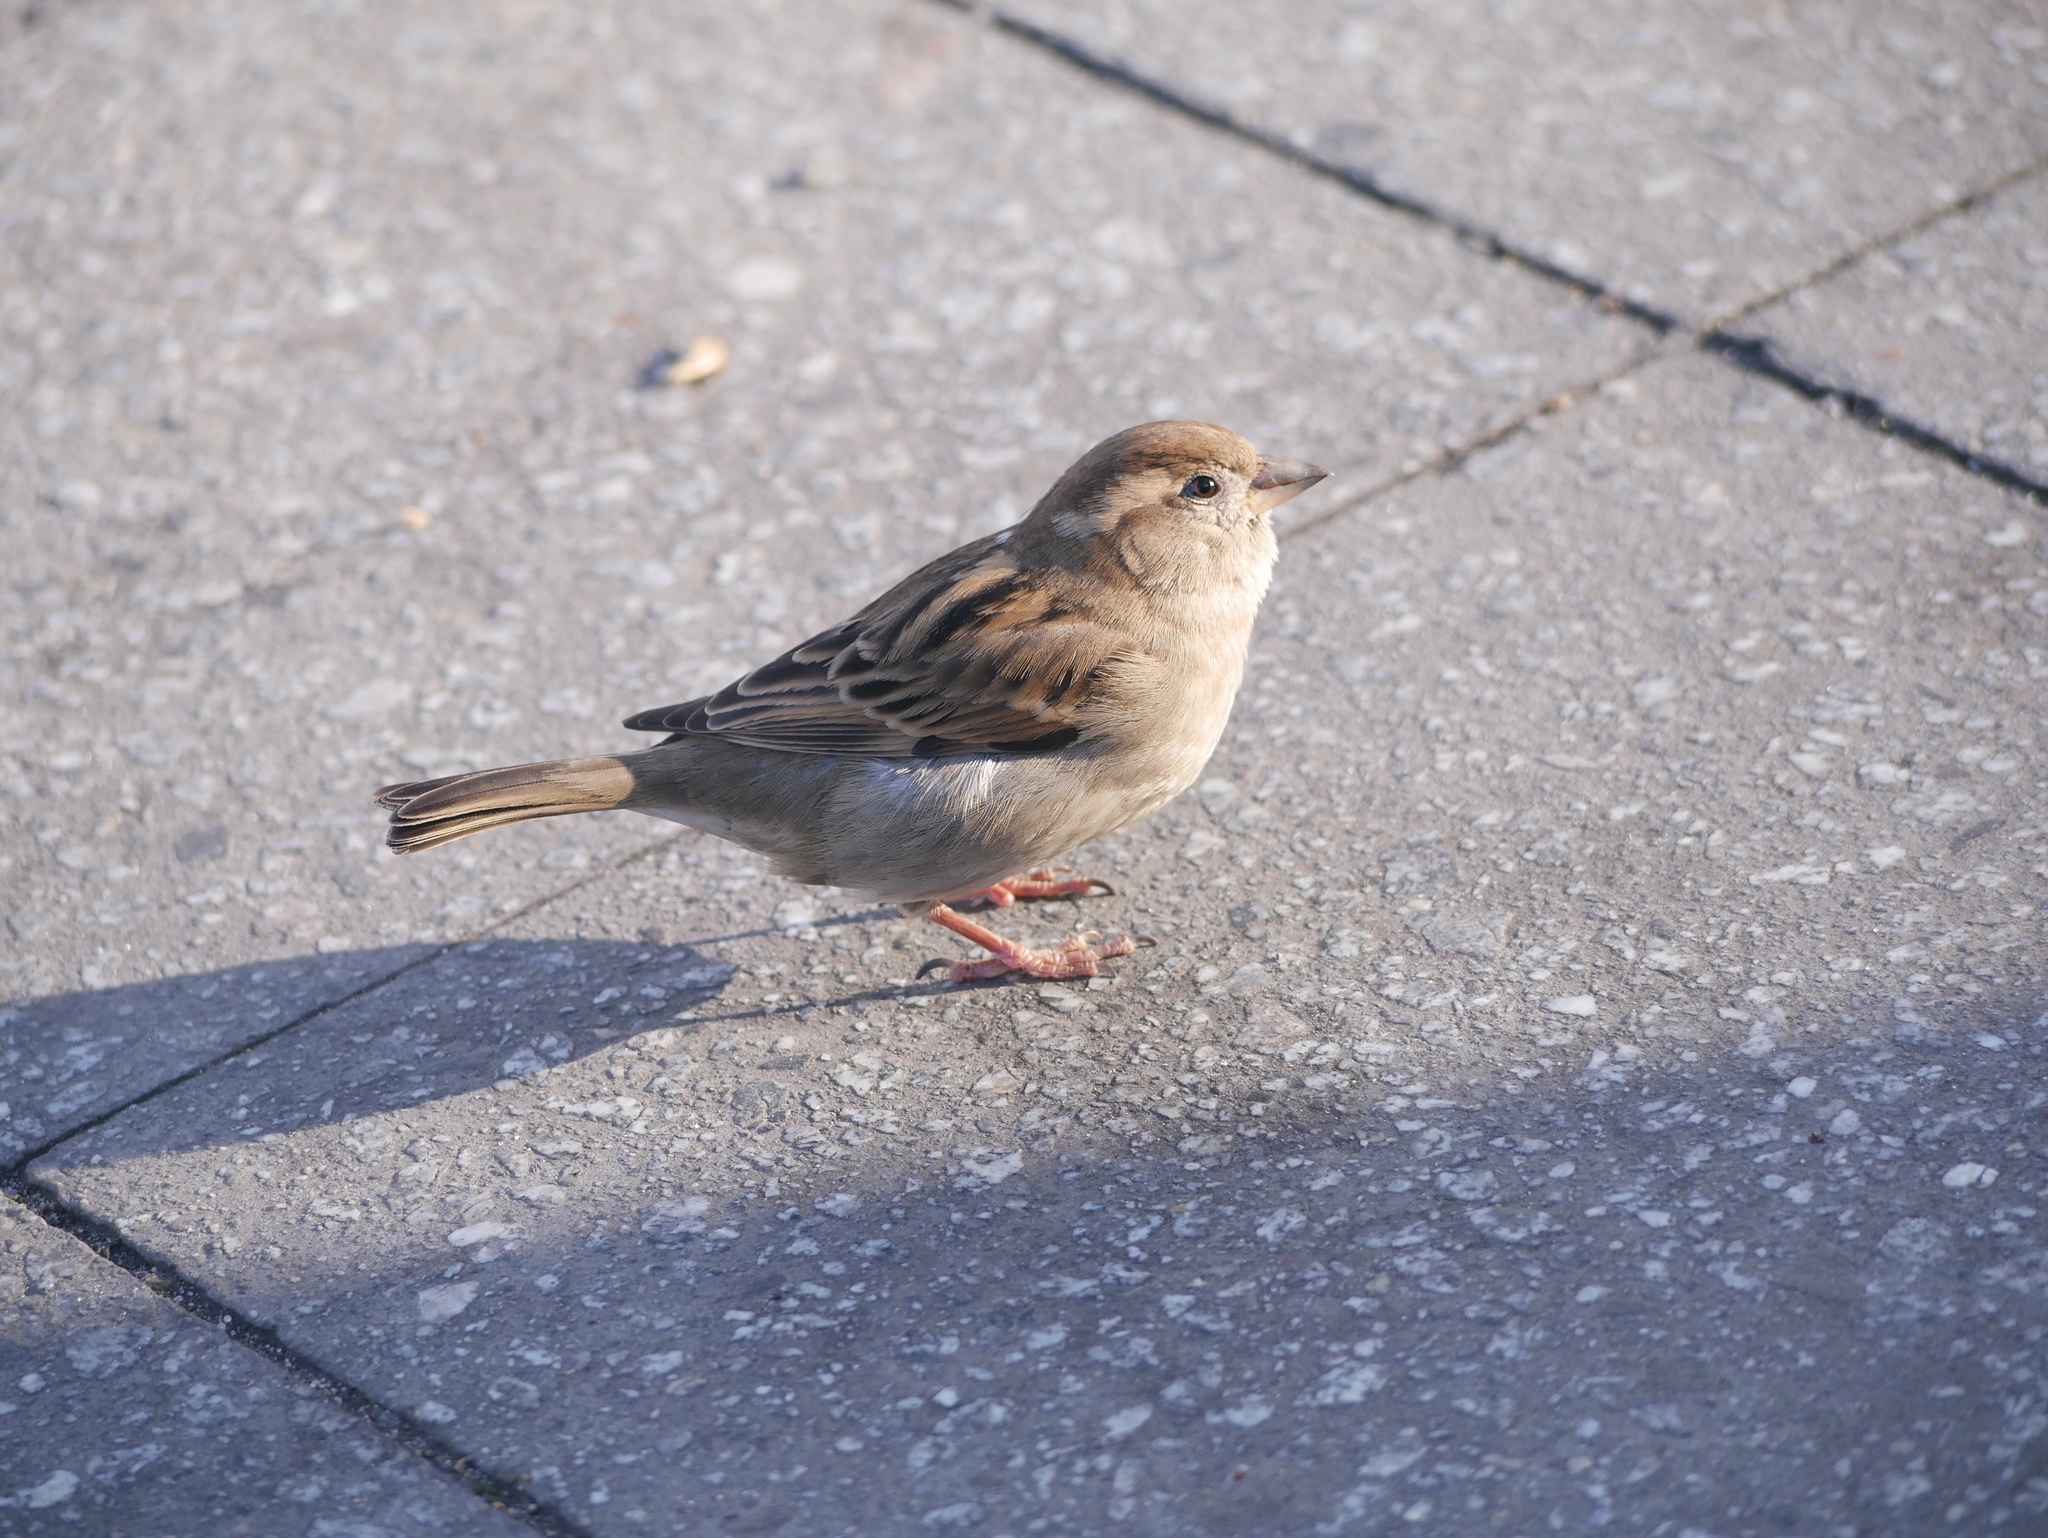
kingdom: Animalia
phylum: Chordata
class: Aves
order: Passeriformes
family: Passeridae
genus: Passer
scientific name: Passer domesticus
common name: House sparrow
